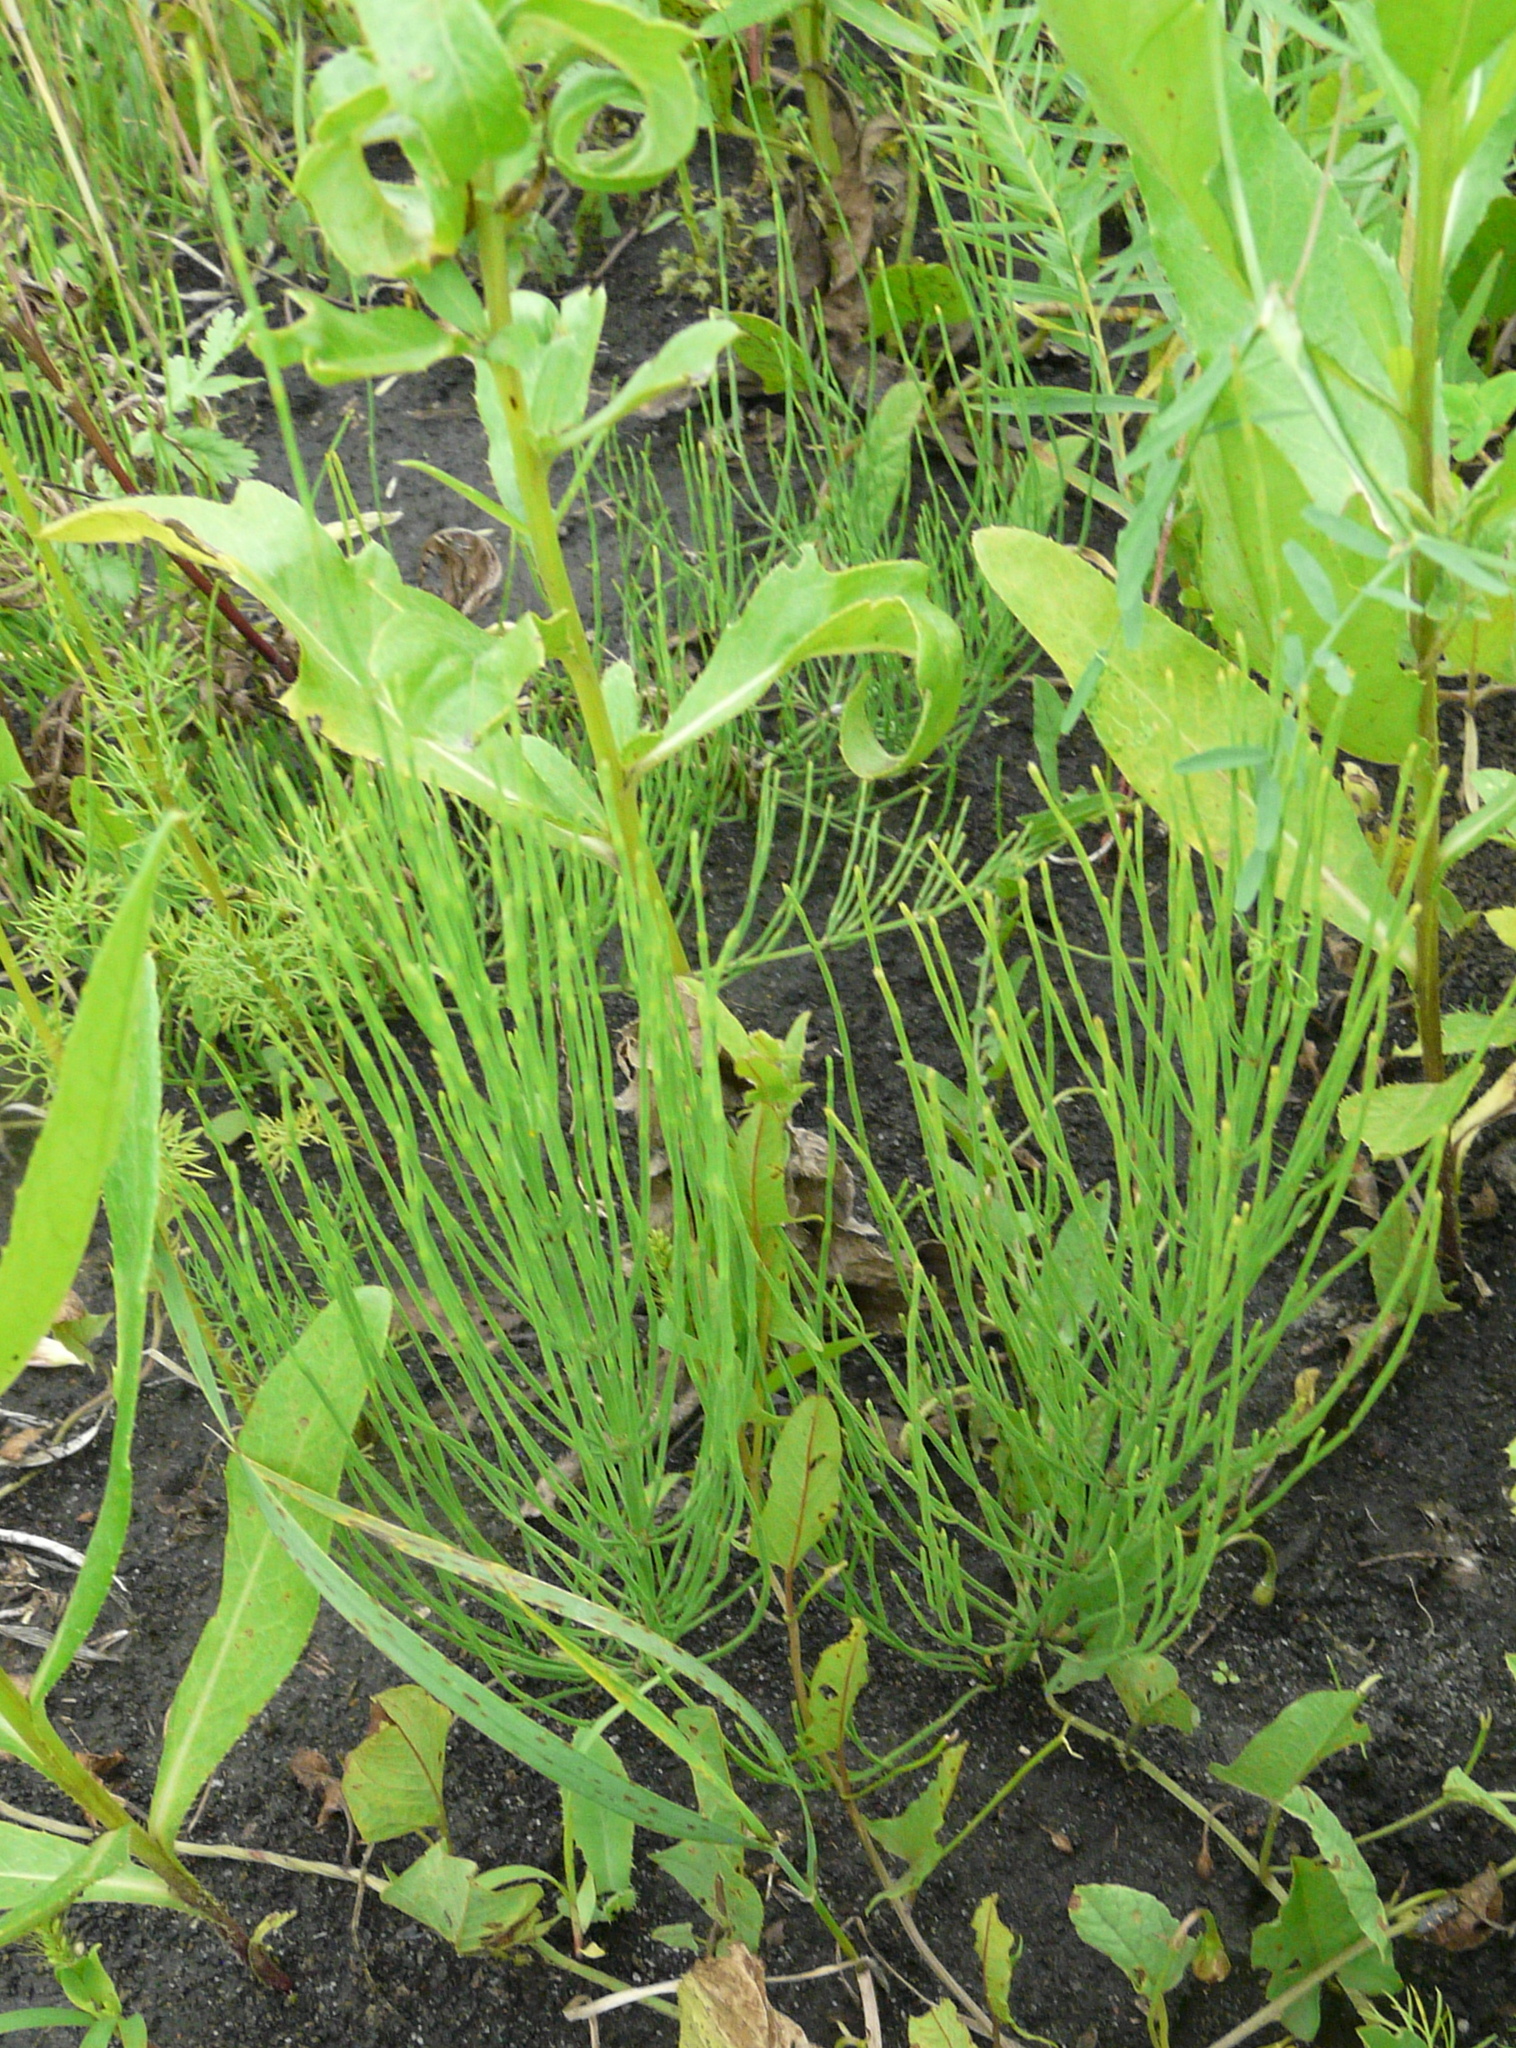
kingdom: Plantae
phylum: Tracheophyta
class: Polypodiopsida
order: Equisetales
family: Equisetaceae
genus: Equisetum
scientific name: Equisetum arvense
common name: Field horsetail
